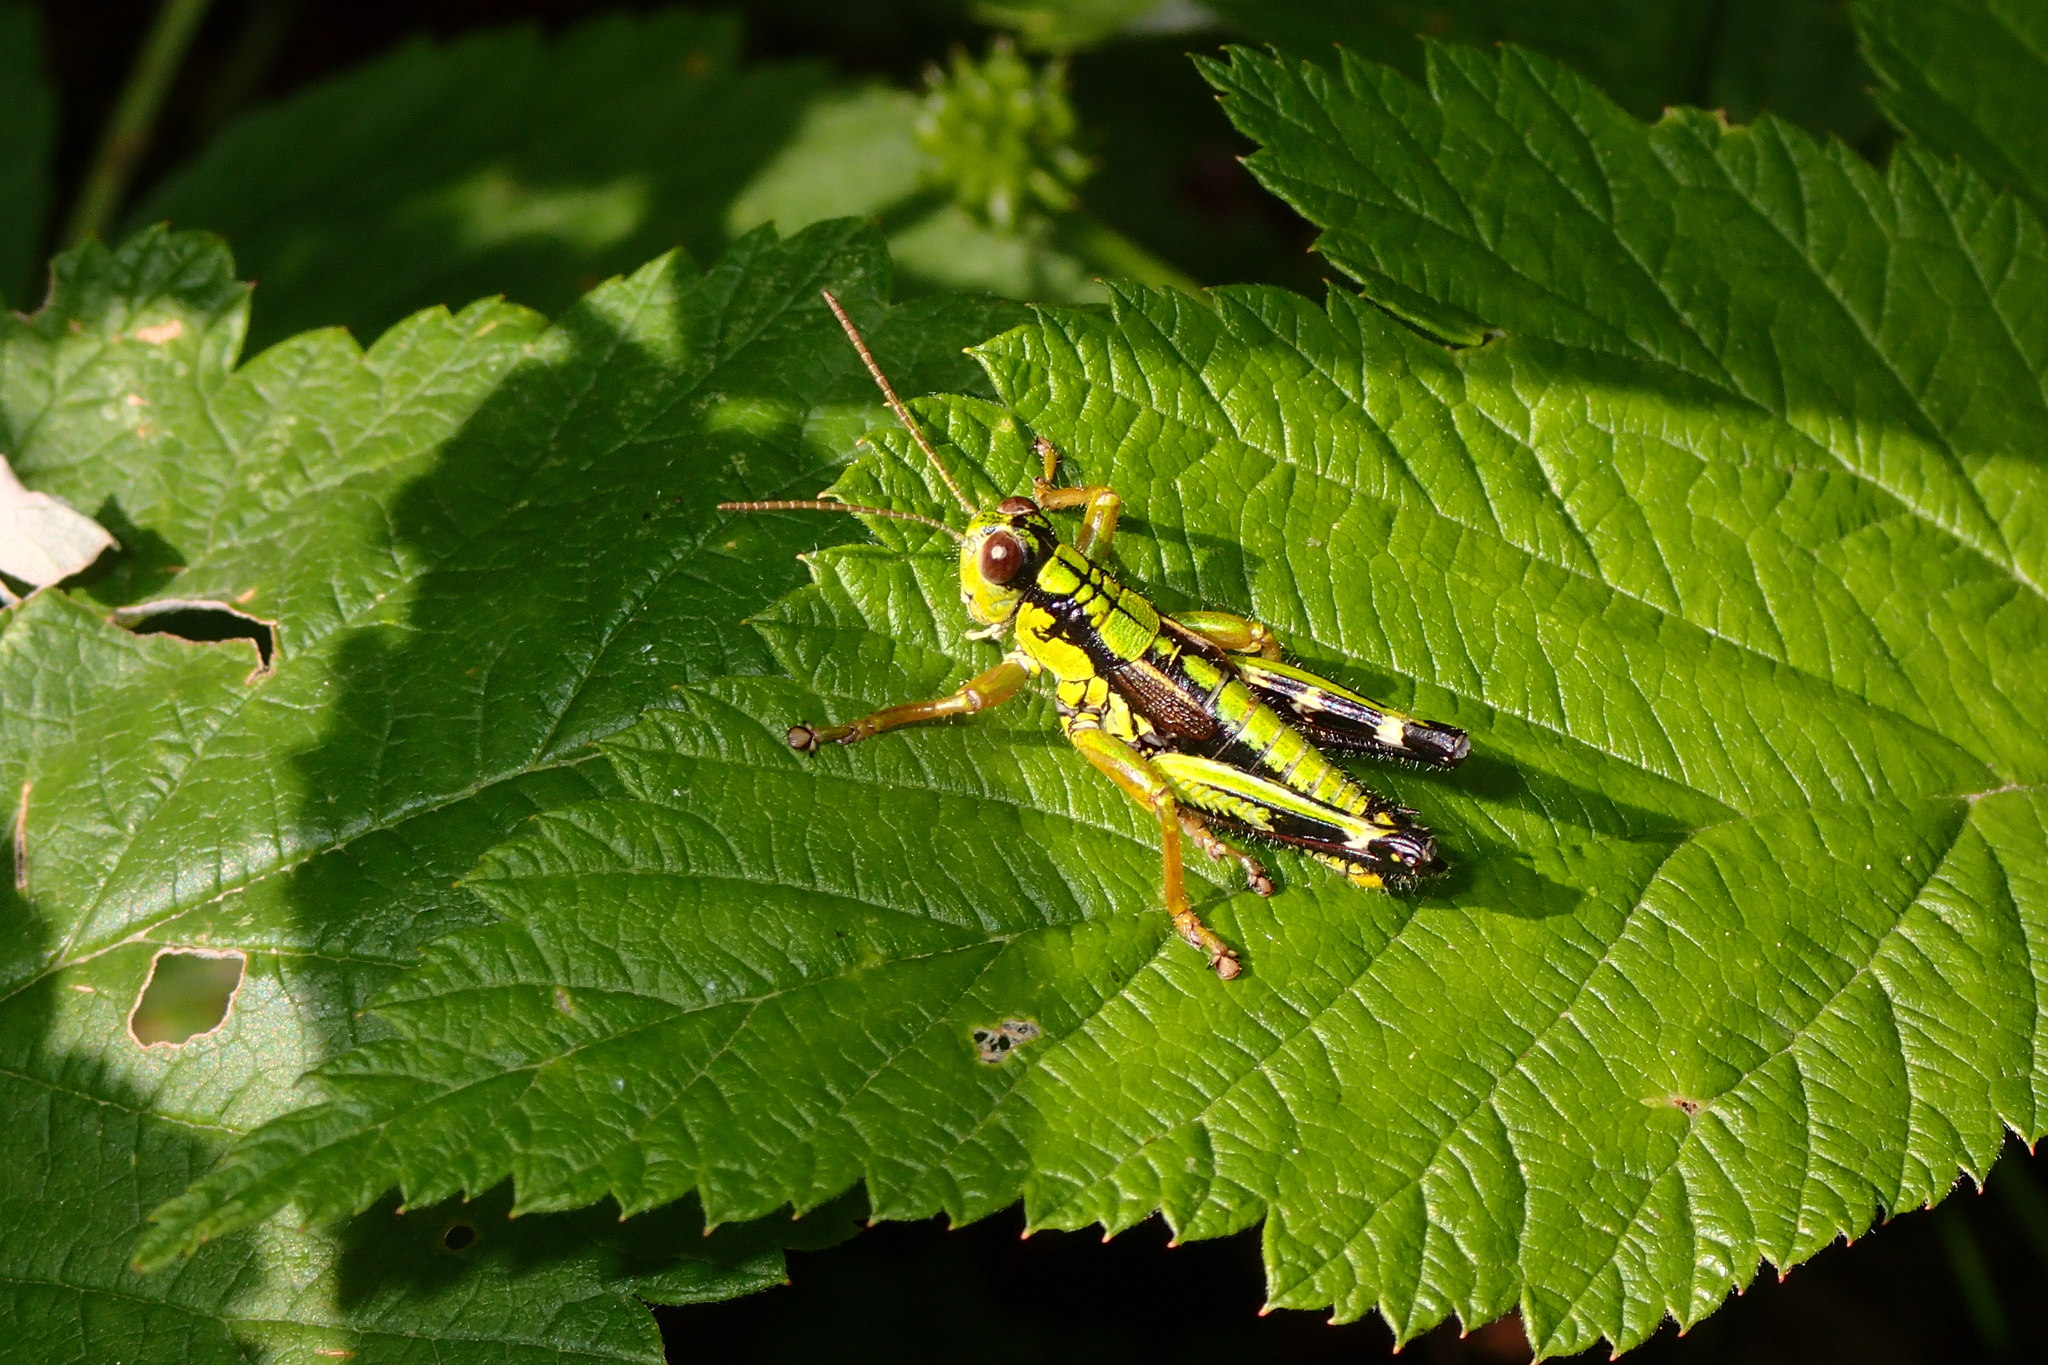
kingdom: Animalia
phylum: Arthropoda
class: Insecta
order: Orthoptera
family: Acrididae
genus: Miramella
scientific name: Miramella alpina
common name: Green mountain grasshopper
